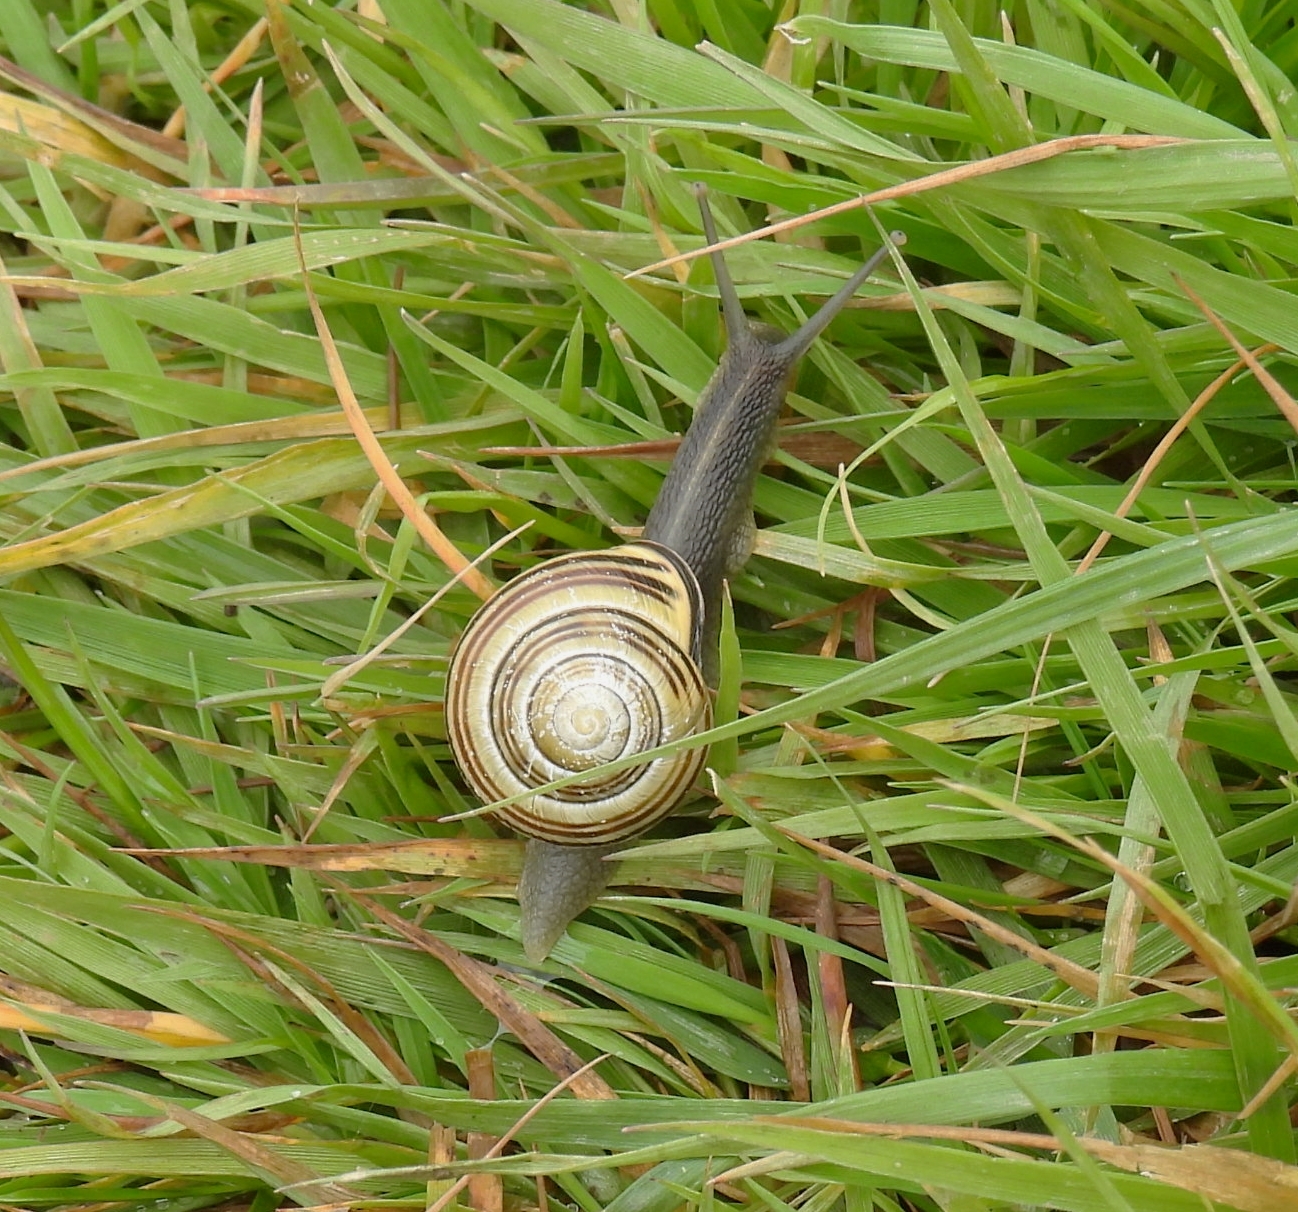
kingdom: Animalia
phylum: Mollusca
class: Gastropoda
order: Stylommatophora
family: Helicidae
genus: Cepaea
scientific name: Cepaea nemoralis
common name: Grovesnail
